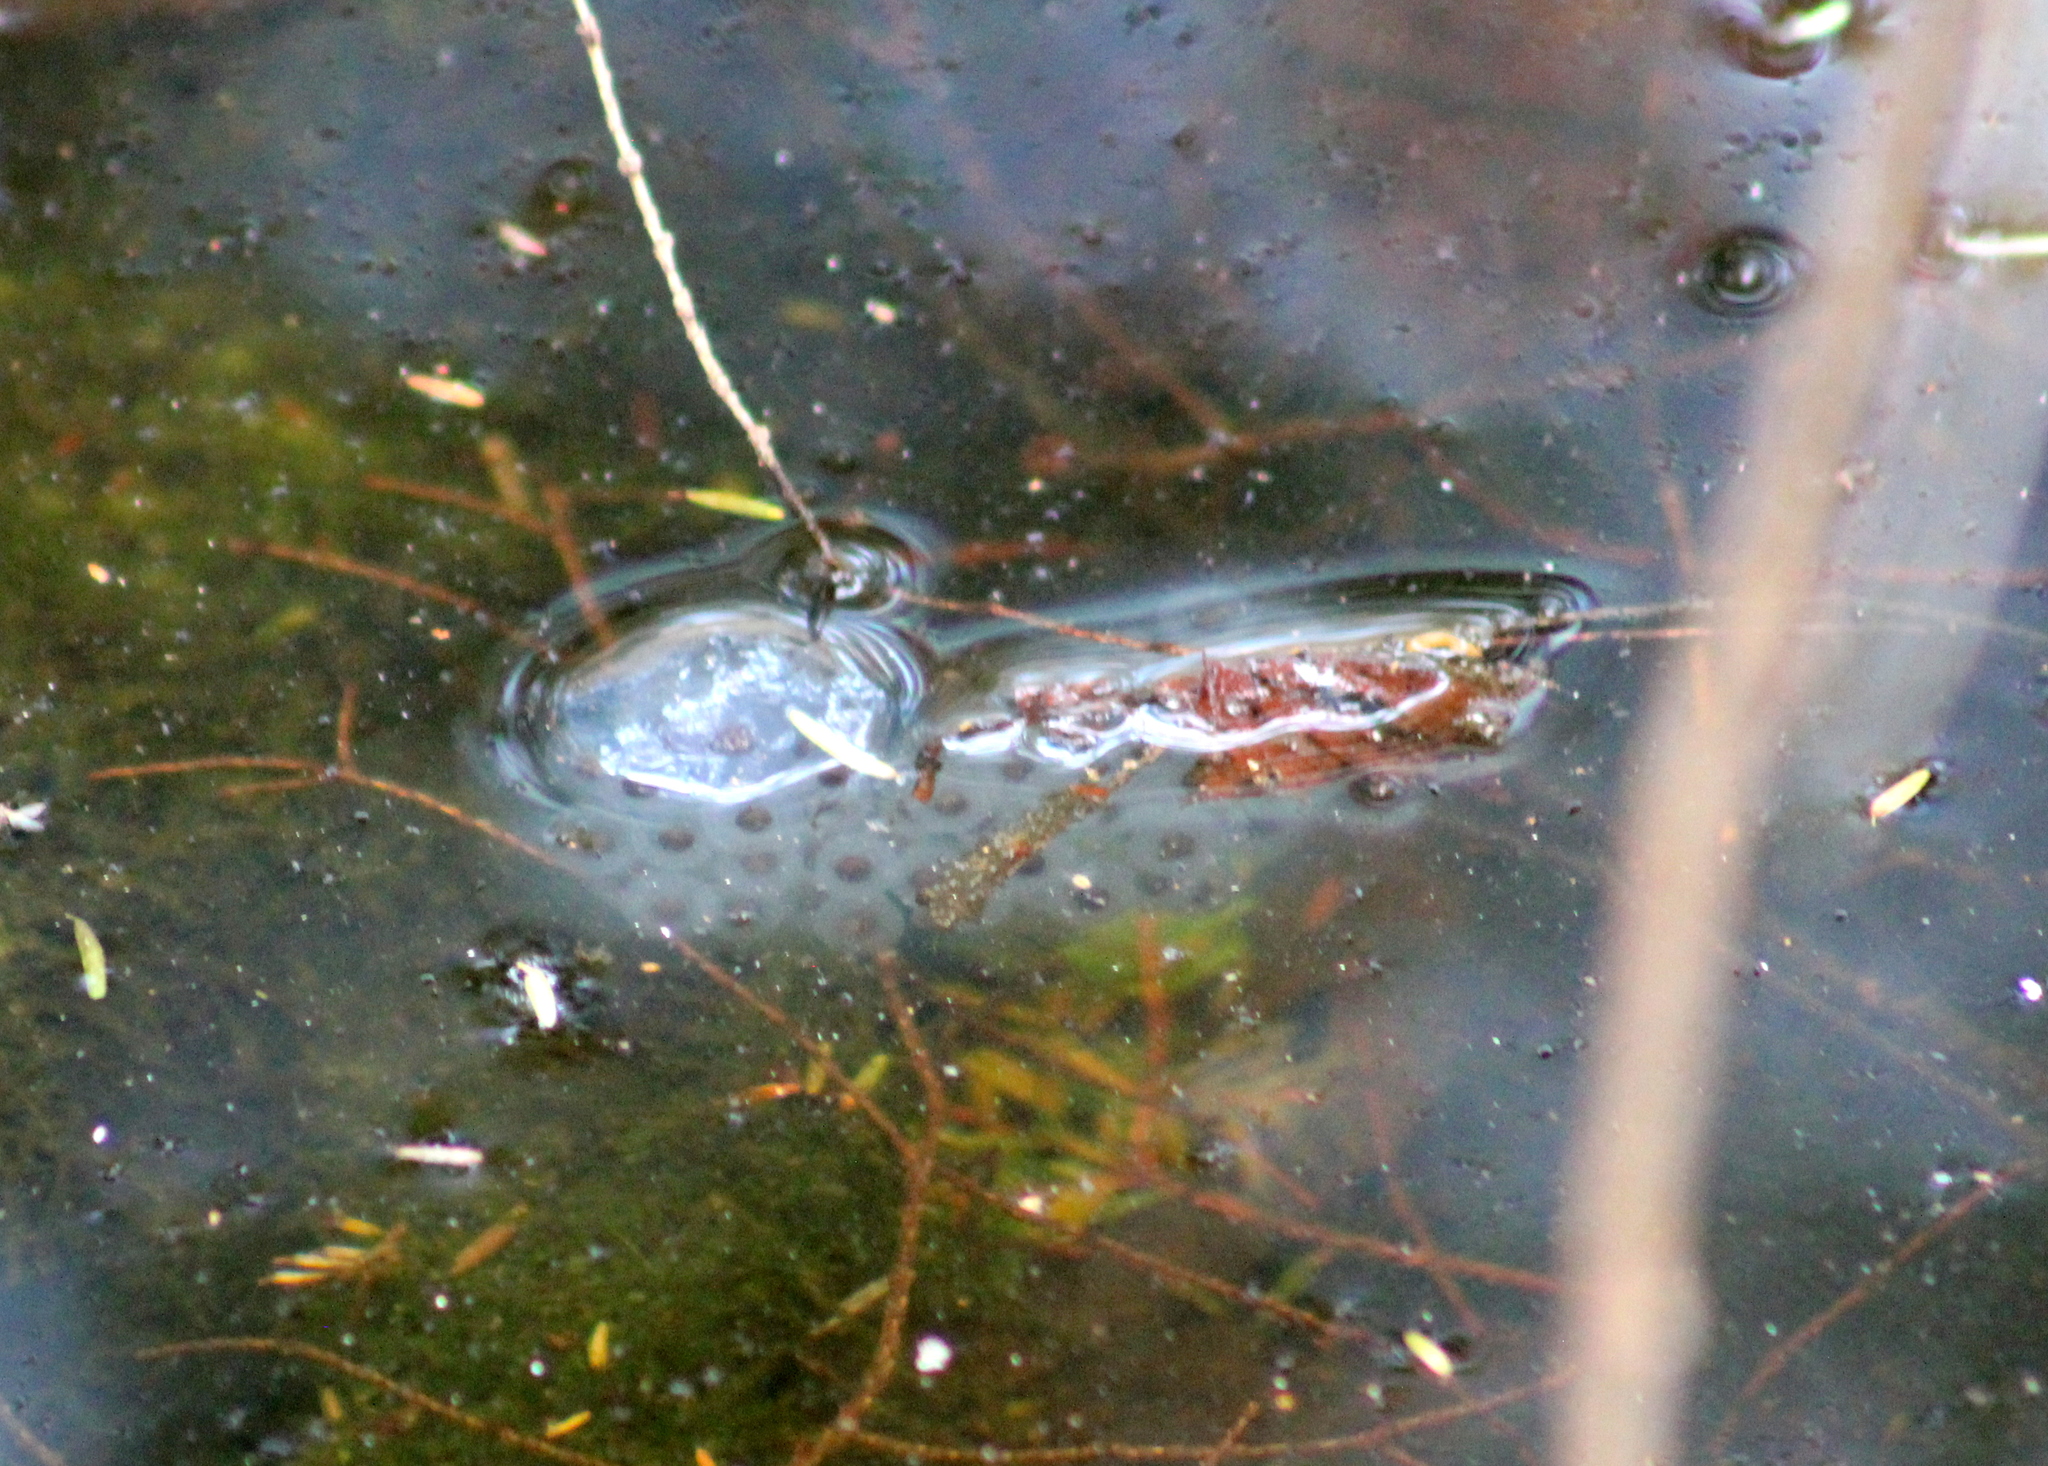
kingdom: Animalia
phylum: Chordata
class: Amphibia
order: Caudata
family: Ambystomatidae
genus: Ambystoma
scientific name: Ambystoma maculatum
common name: Spotted salamander
